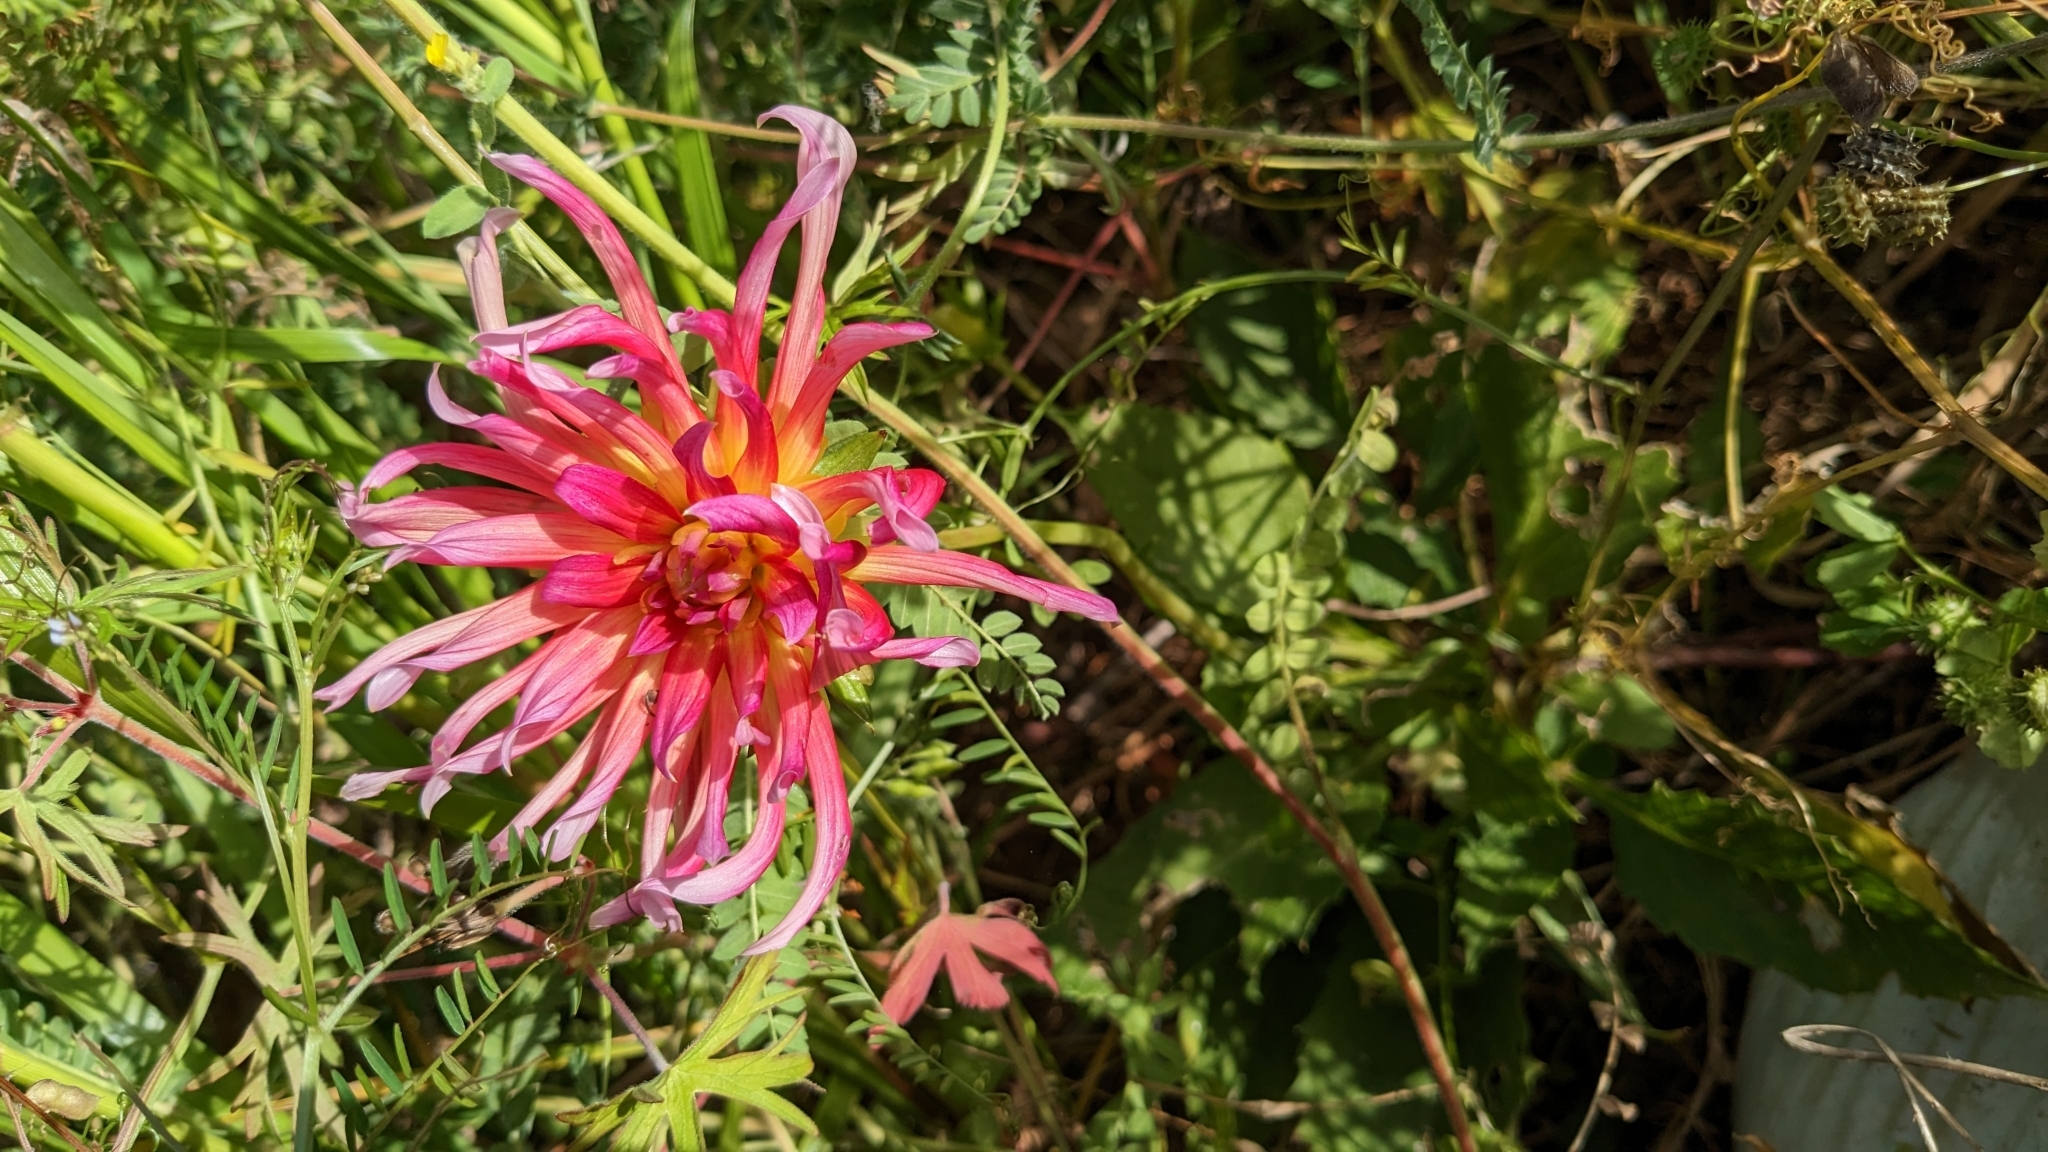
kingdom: Plantae
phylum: Tracheophyta
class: Magnoliopsida
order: Asterales
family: Asteraceae
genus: Dahlia
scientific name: Dahlia pinnata
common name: Dahlia
